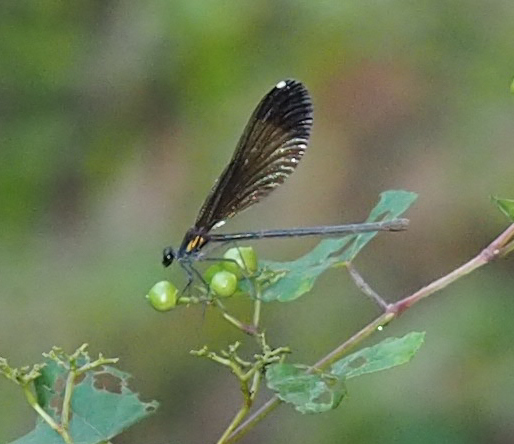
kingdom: Animalia
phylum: Arthropoda
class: Insecta
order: Odonata
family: Calopterygidae
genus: Calopteryx
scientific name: Calopteryx maculata
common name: Ebony jewelwing
